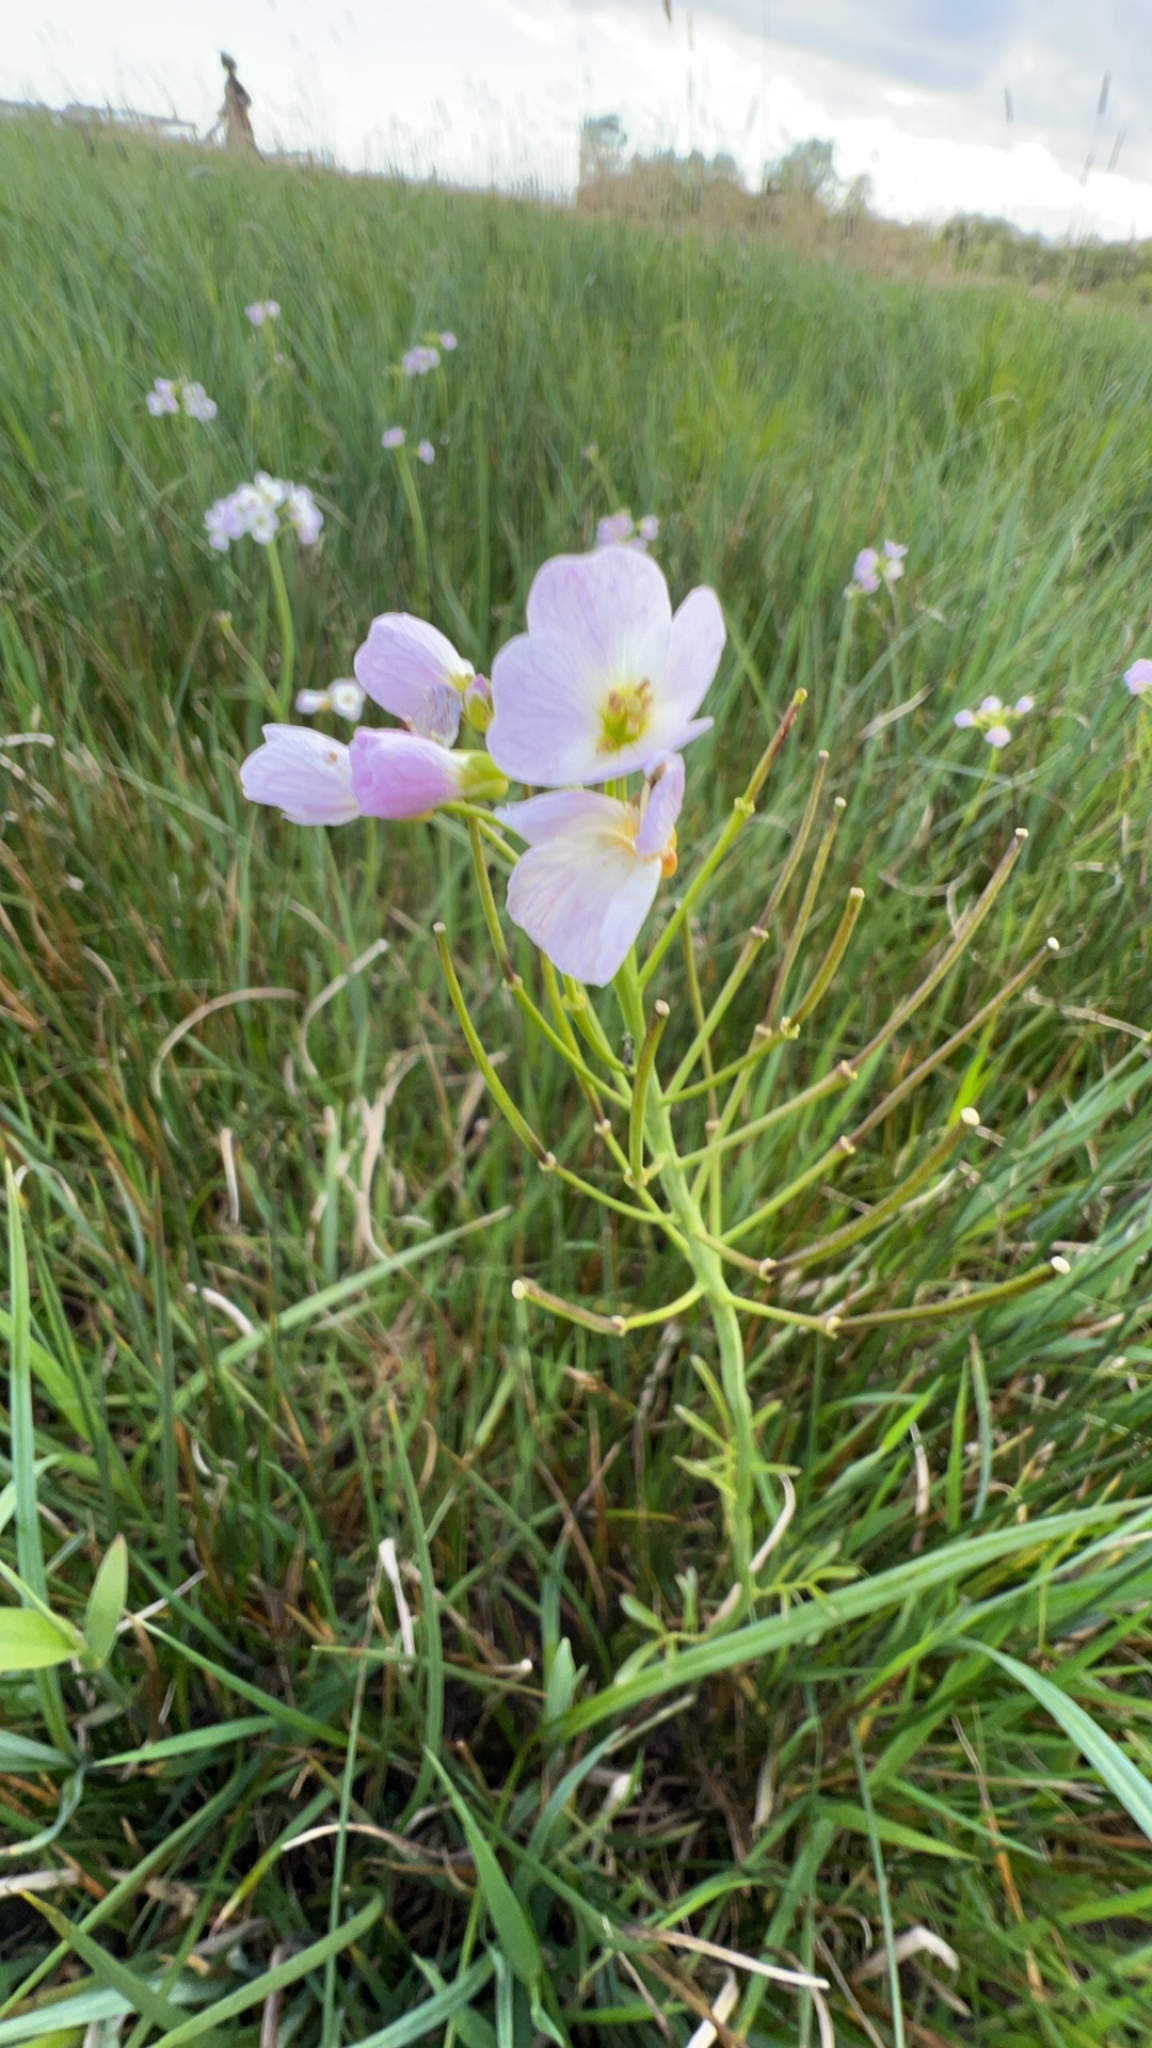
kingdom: Plantae
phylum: Tracheophyta
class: Magnoliopsida
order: Brassicales
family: Brassicaceae
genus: Cardamine
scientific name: Cardamine pratensis
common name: Cuckoo flower
